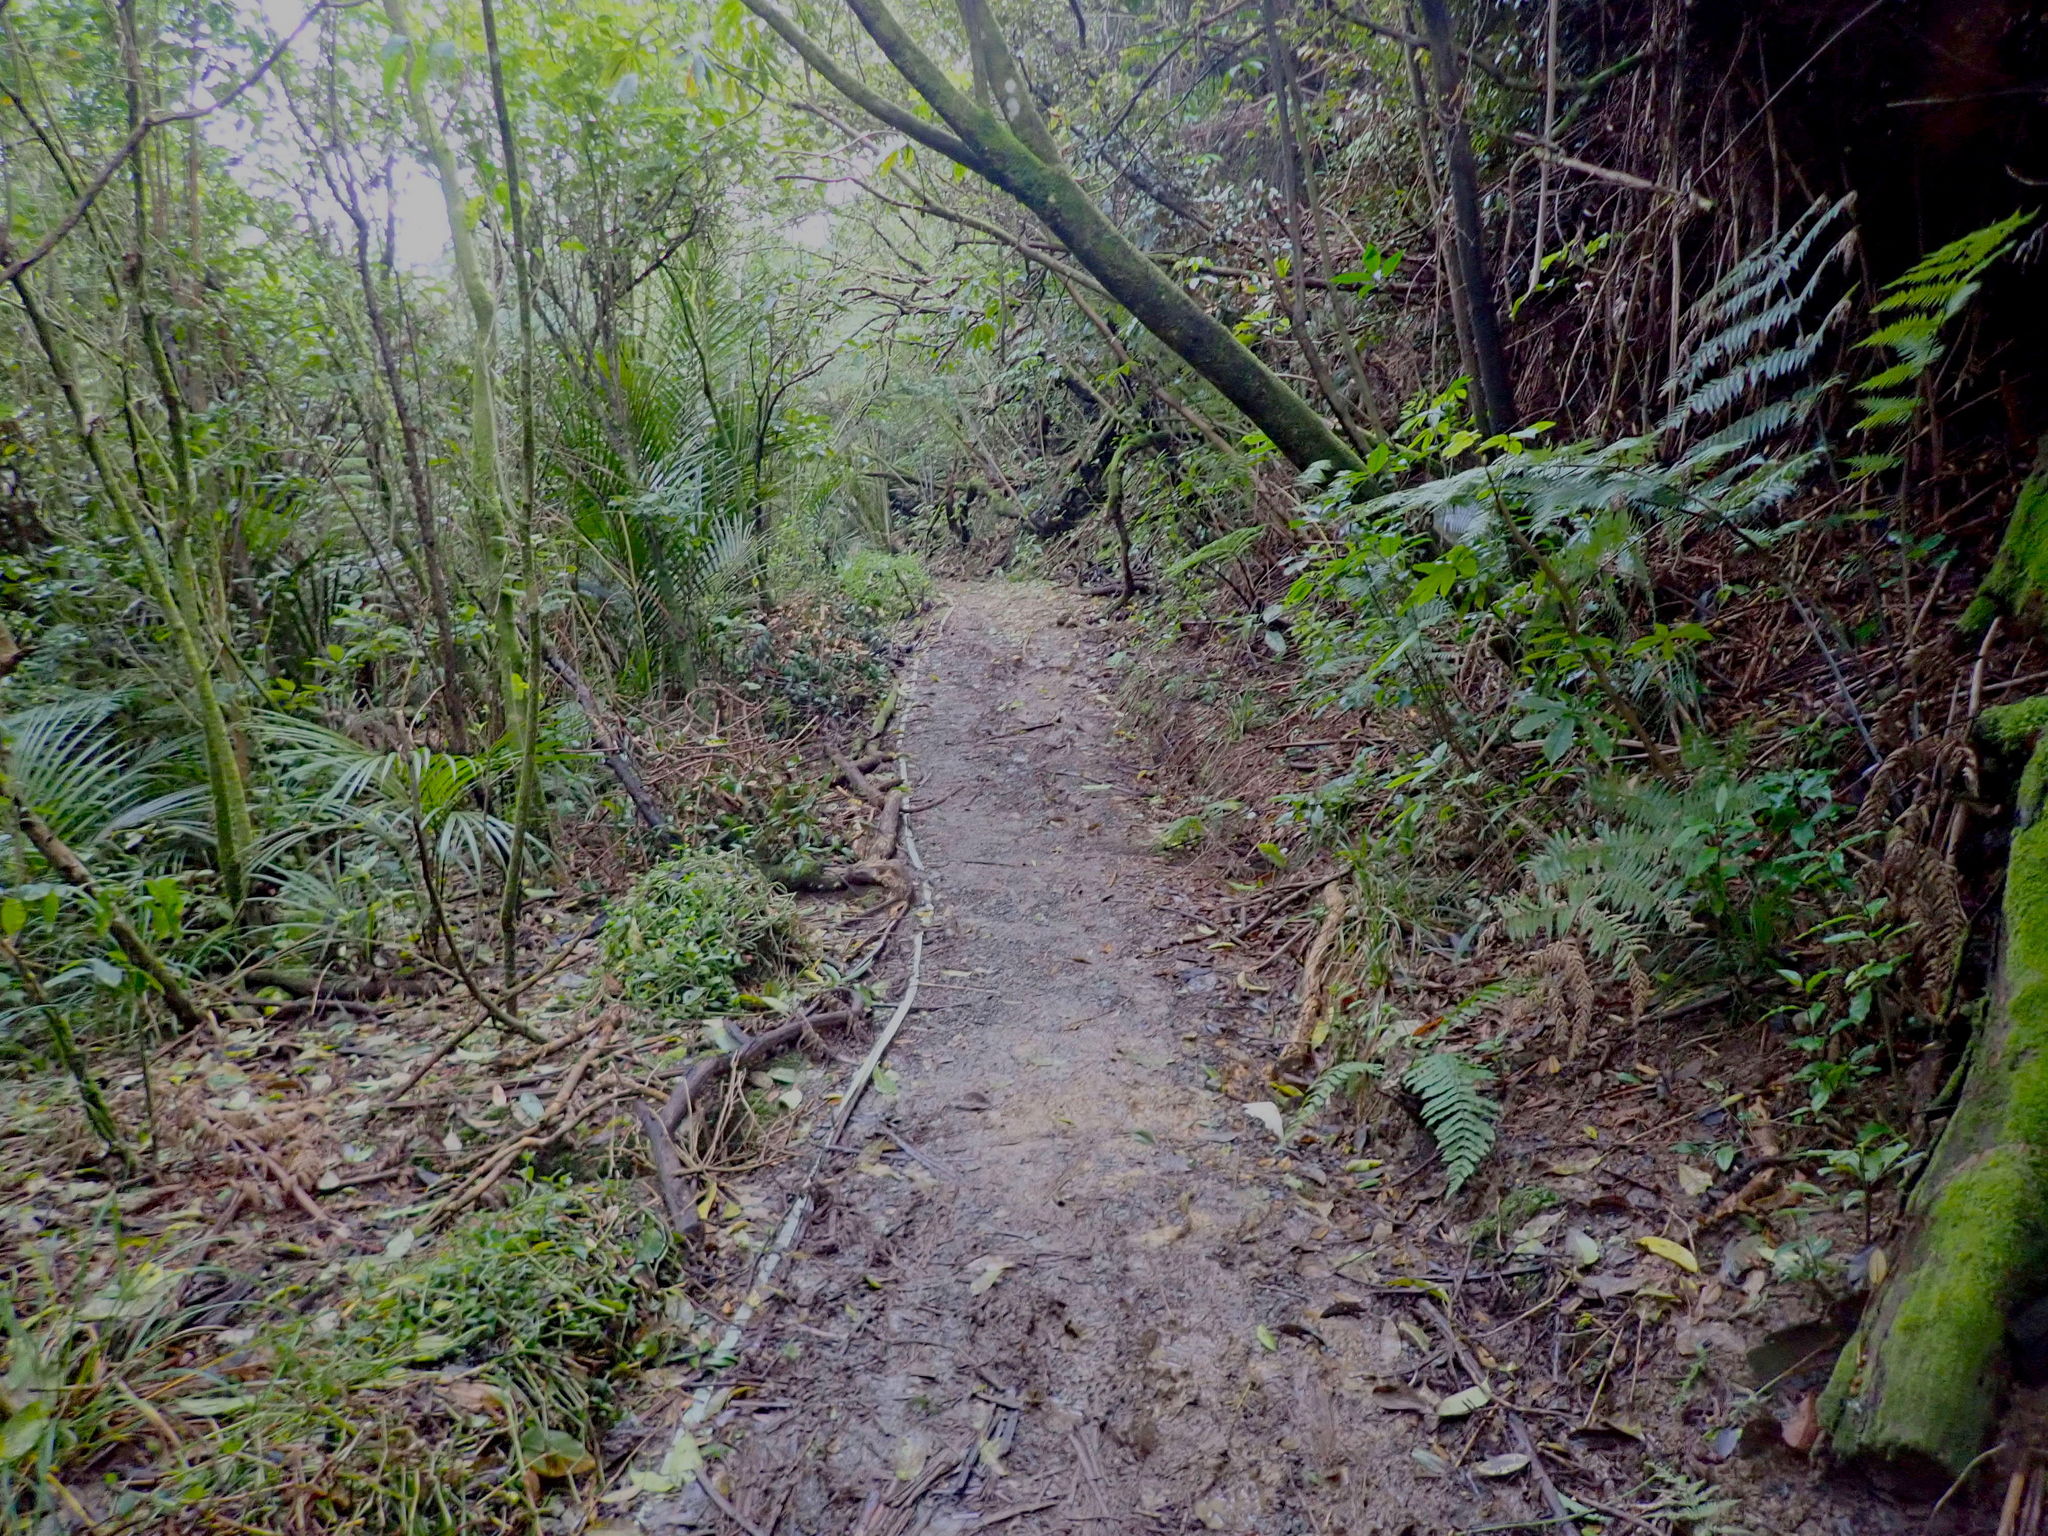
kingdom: Plantae
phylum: Tracheophyta
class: Liliopsida
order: Commelinales
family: Commelinaceae
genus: Tradescantia
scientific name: Tradescantia fluminensis
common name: Wandering-jew
